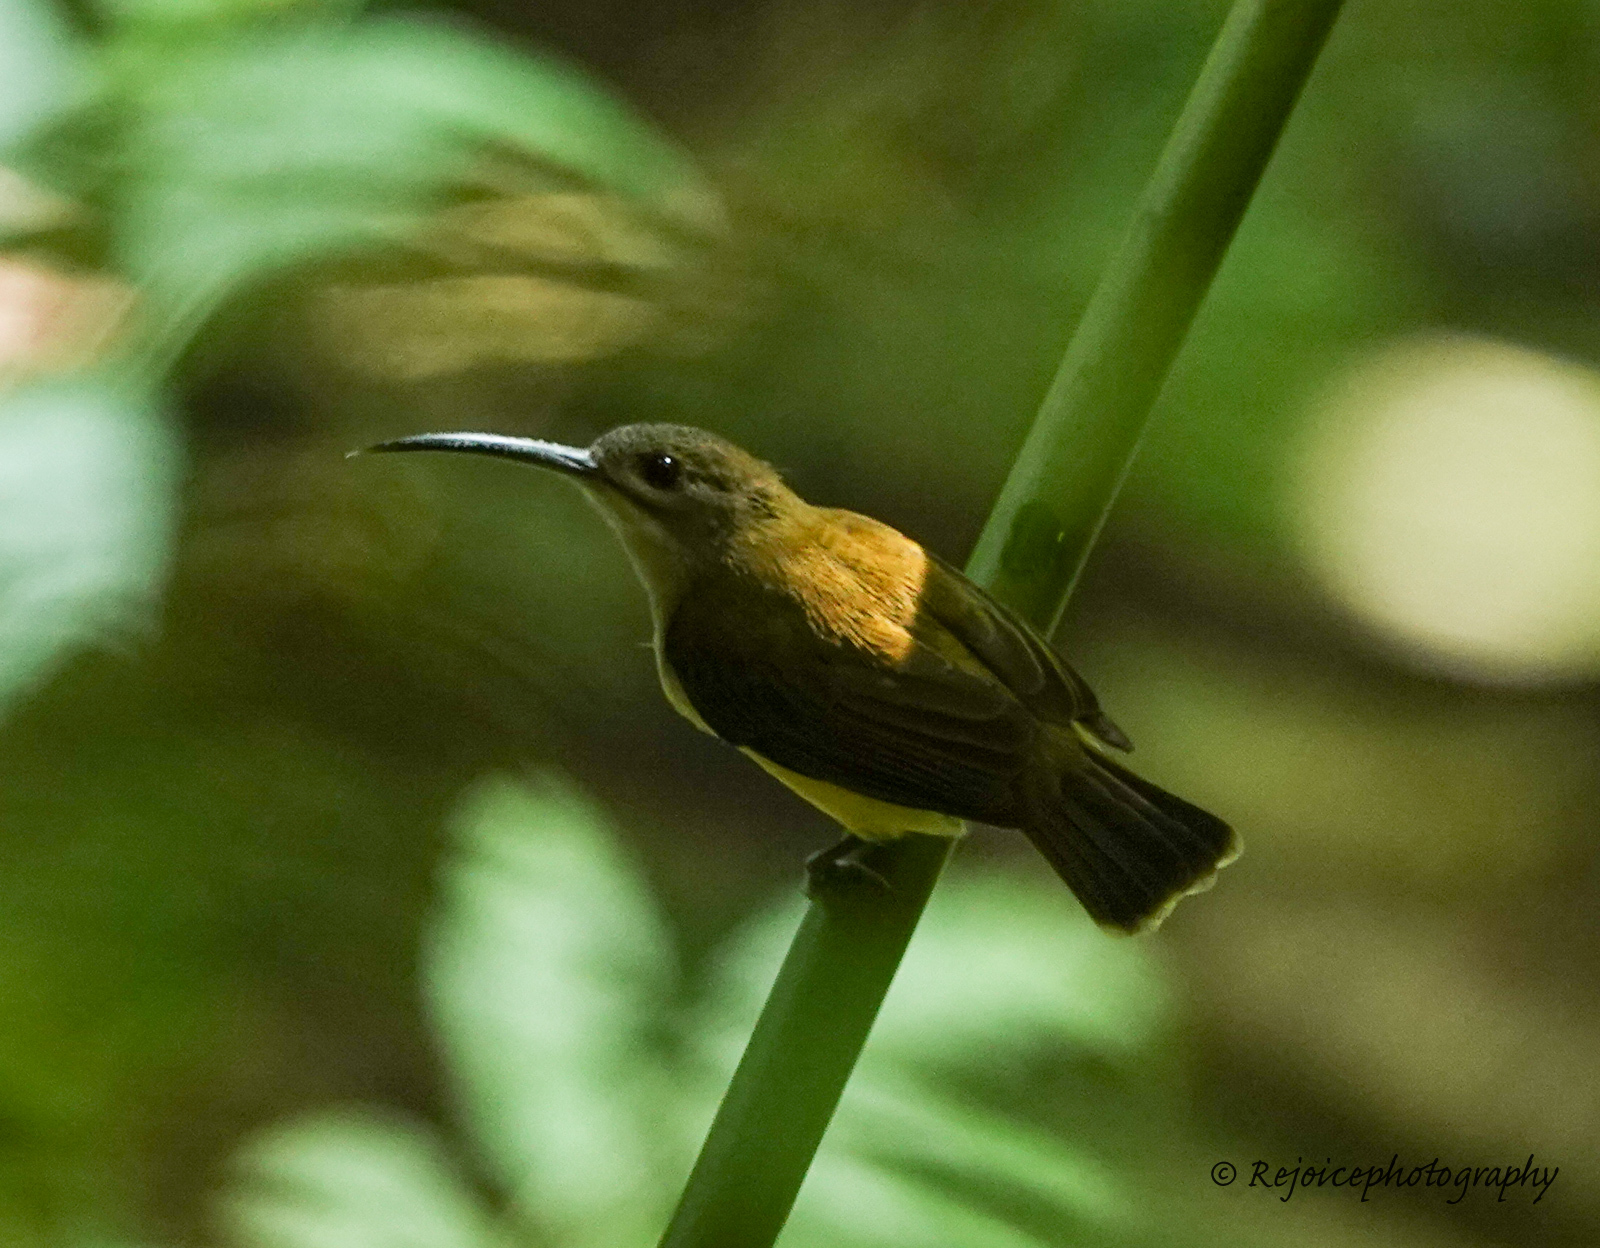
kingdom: Animalia
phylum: Chordata
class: Aves
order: Passeriformes
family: Nectariniidae
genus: Arachnothera
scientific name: Arachnothera longirostra
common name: Little spiderhunter
